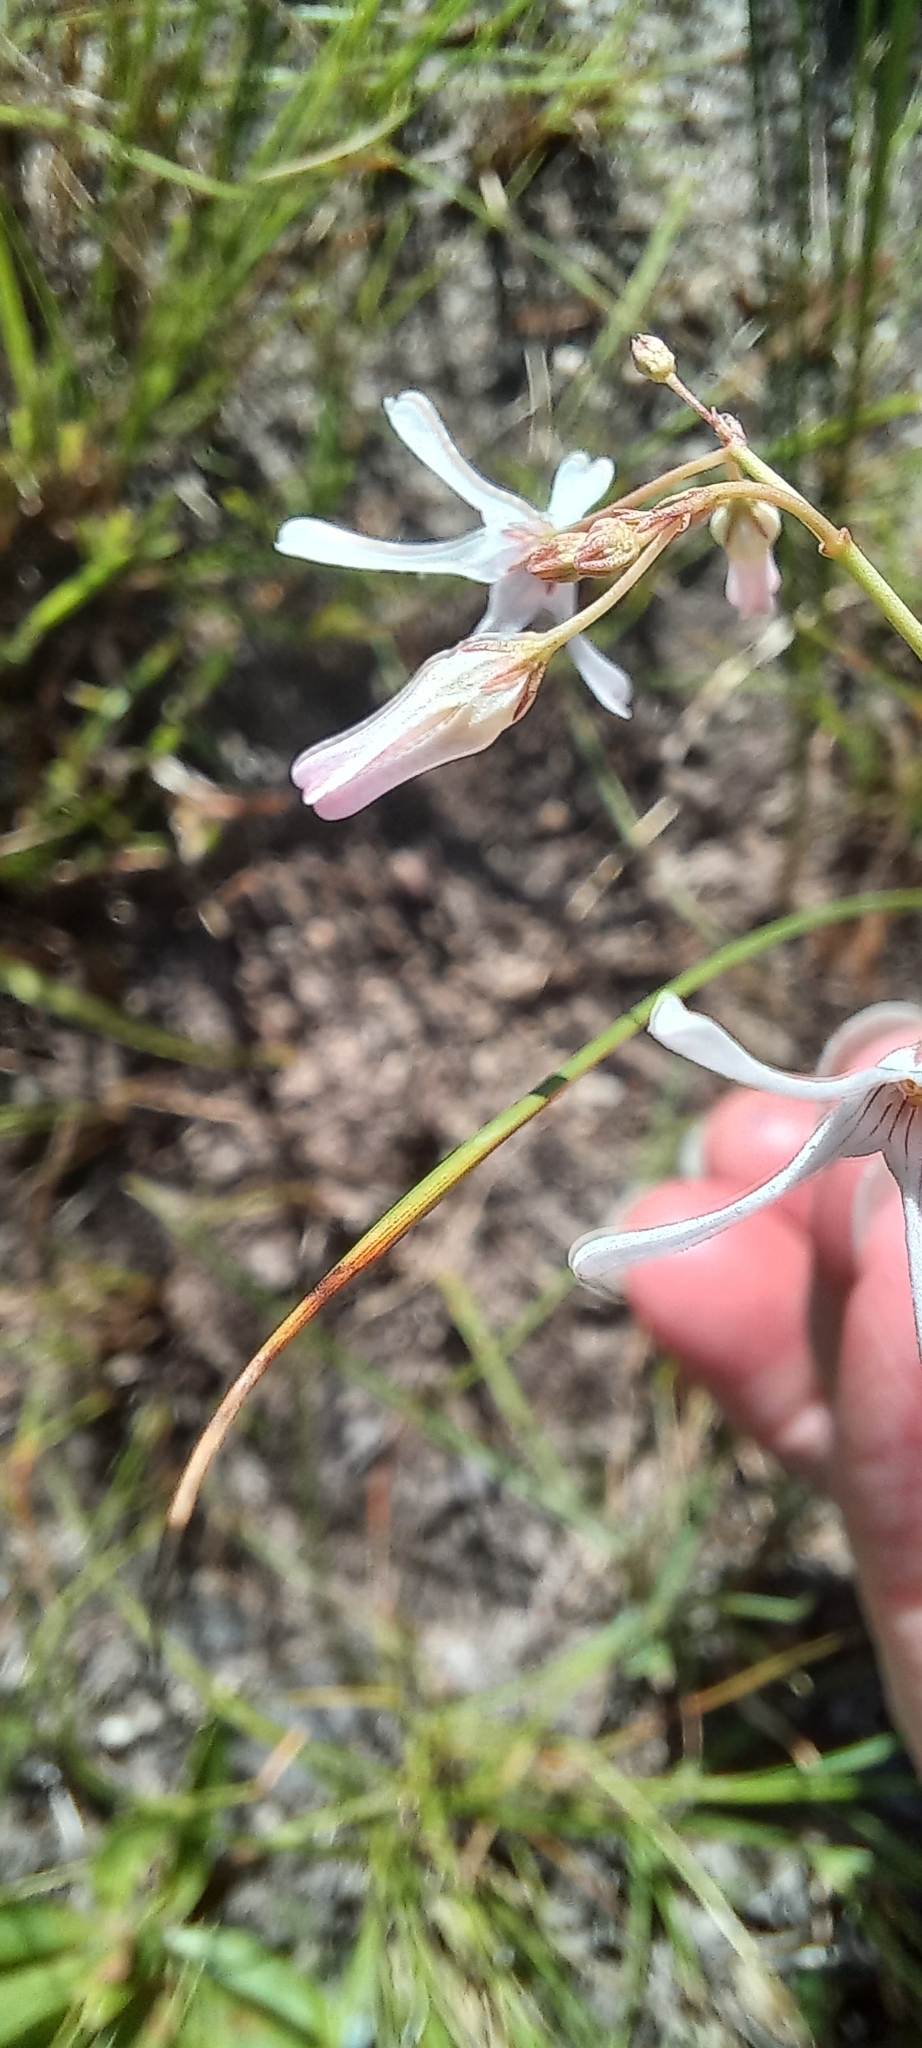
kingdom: Plantae
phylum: Tracheophyta
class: Magnoliopsida
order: Gentianales
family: Apocynaceae
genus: Ceropegia
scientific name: Ceropegia rubella
